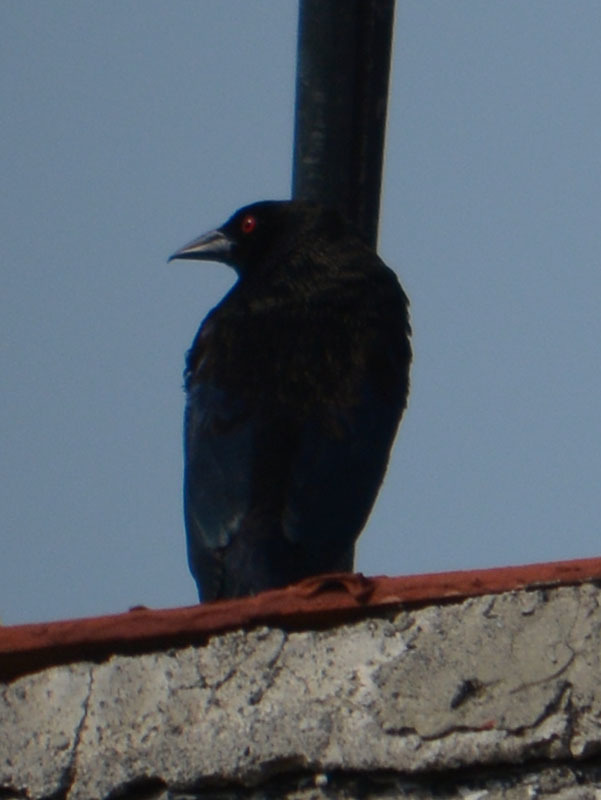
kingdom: Animalia
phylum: Chordata
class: Aves
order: Passeriformes
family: Icteridae
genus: Molothrus
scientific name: Molothrus aeneus
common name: Bronzed cowbird
